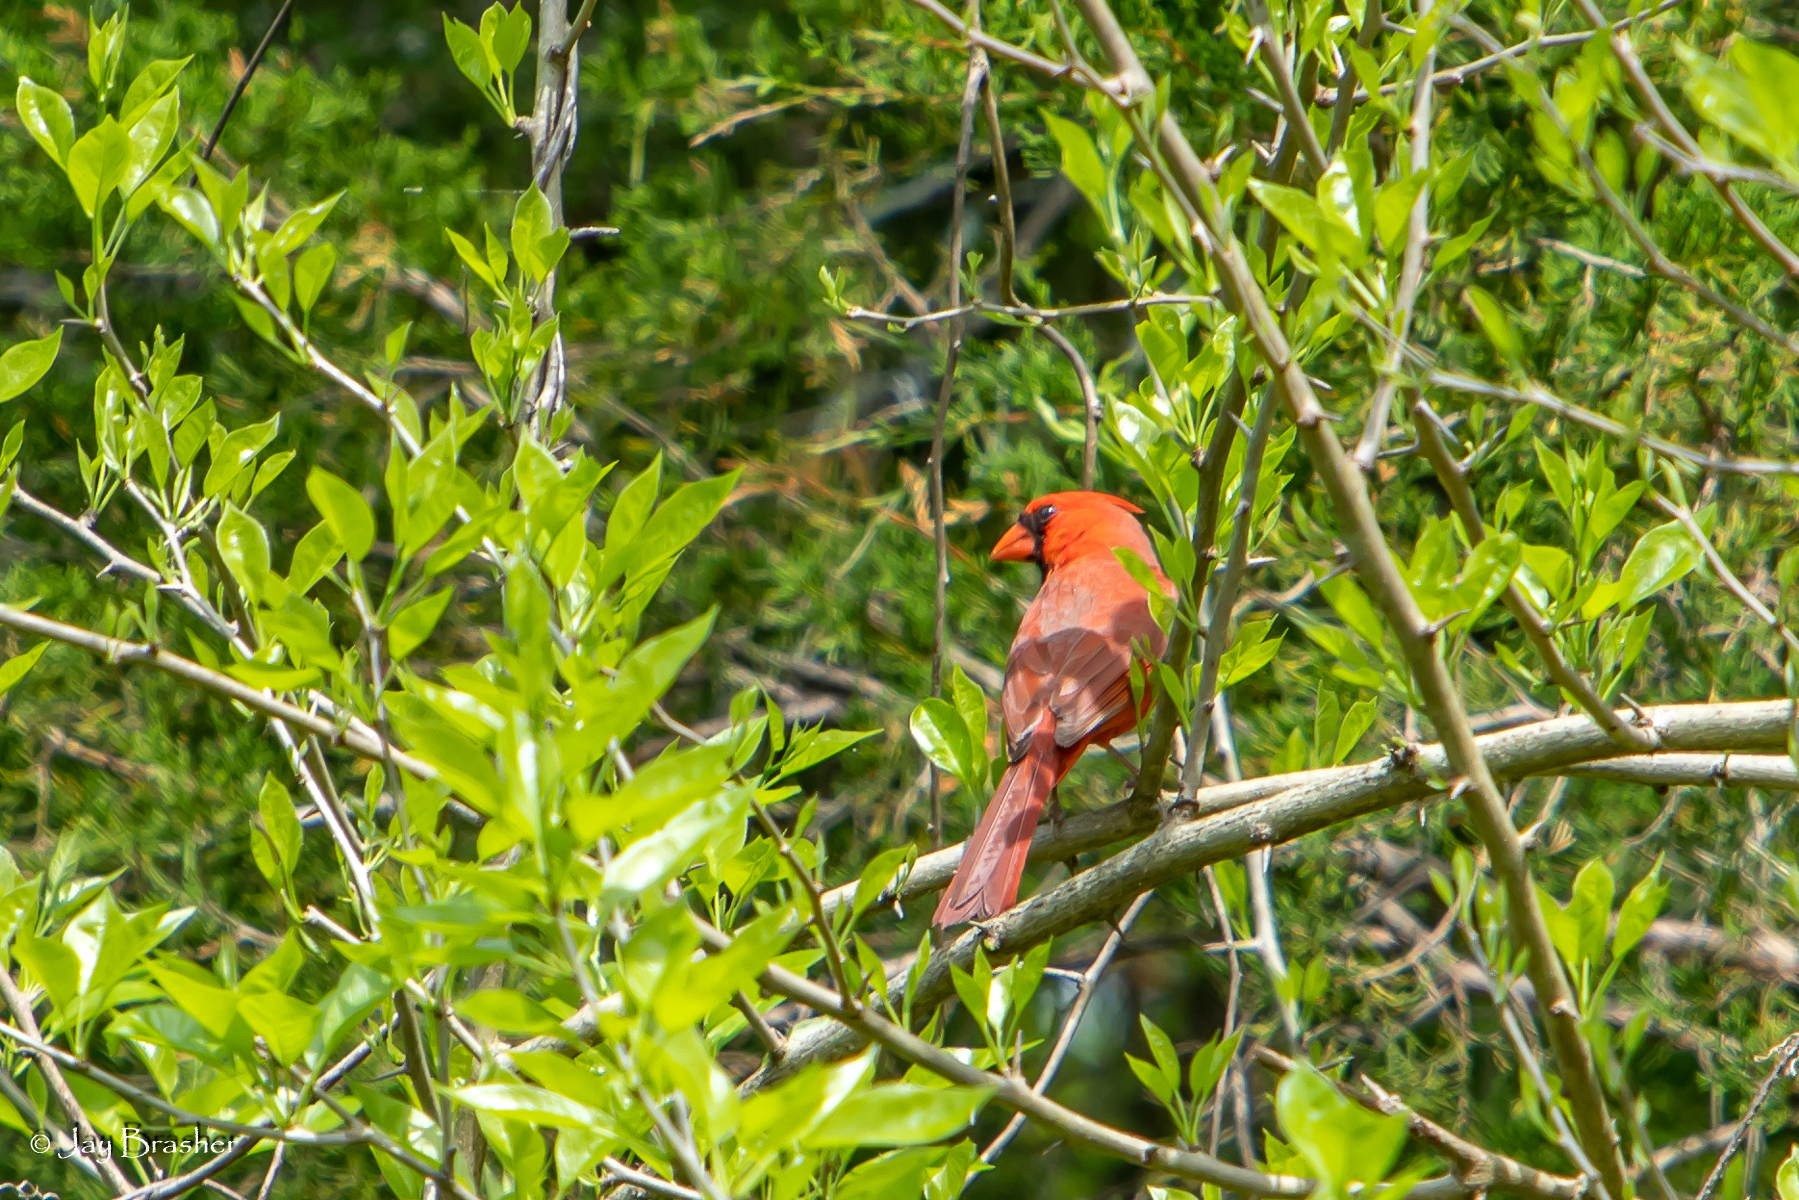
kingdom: Animalia
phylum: Chordata
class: Aves
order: Passeriformes
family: Cardinalidae
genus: Cardinalis
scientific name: Cardinalis cardinalis
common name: Northern cardinal
